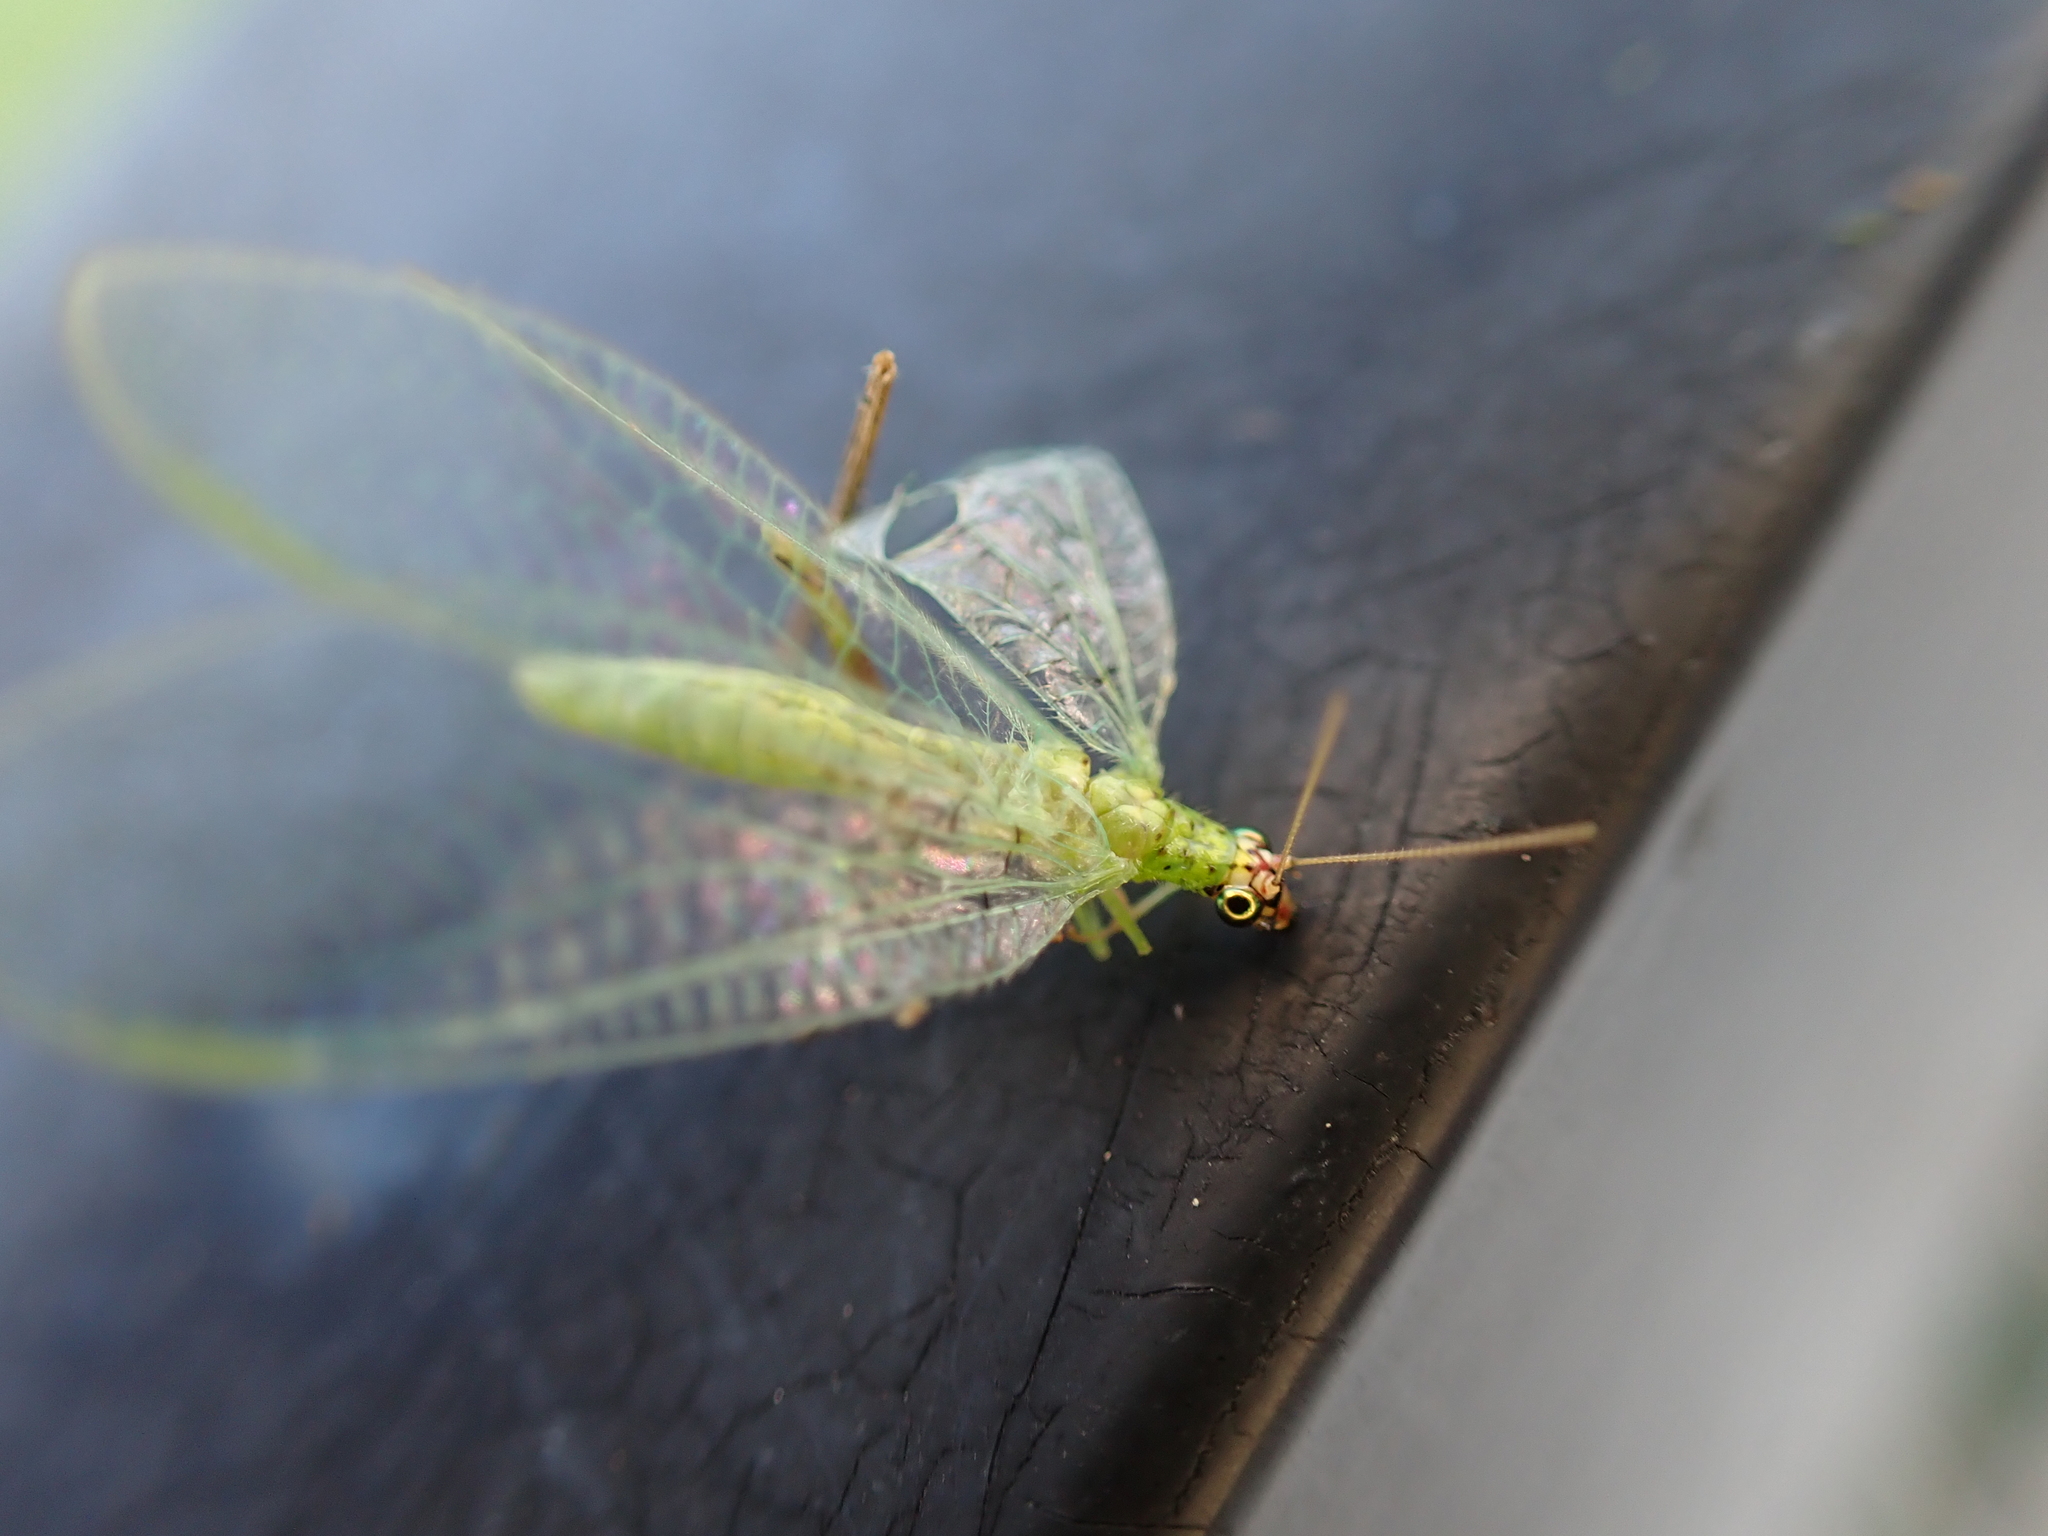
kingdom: Animalia
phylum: Arthropoda
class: Insecta
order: Neuroptera
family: Chrysopidae
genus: Chrysopa
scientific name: Chrysopa oculata
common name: Golden-eyed lacewing
